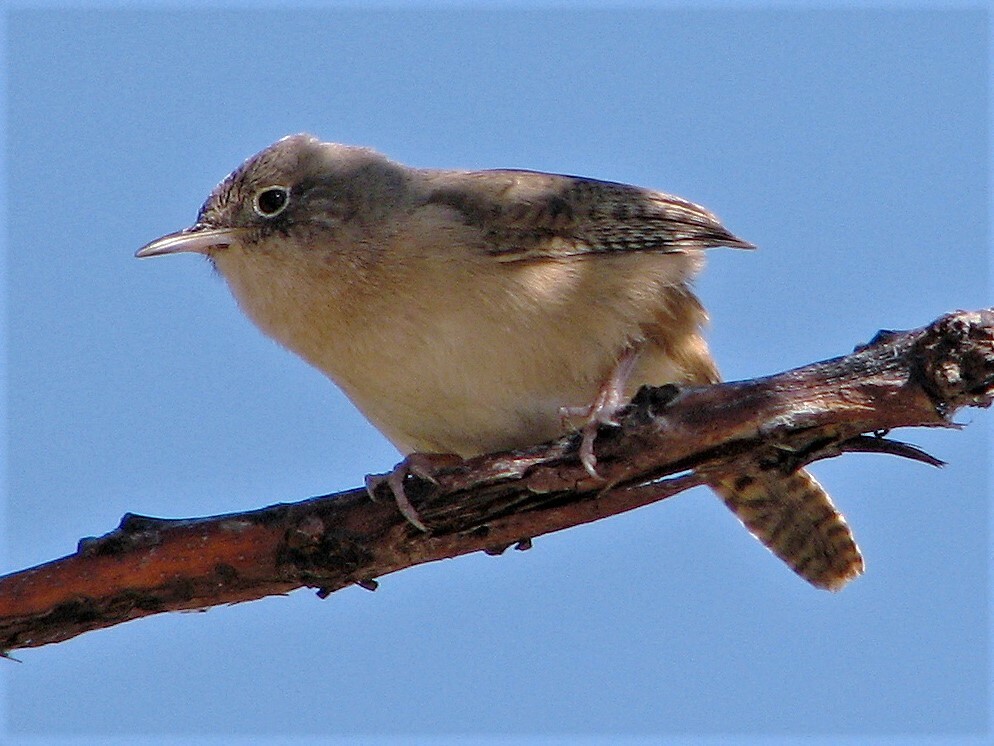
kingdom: Animalia
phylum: Chordata
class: Aves
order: Passeriformes
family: Troglodytidae
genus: Troglodytes
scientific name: Troglodytes aedon
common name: House wren
